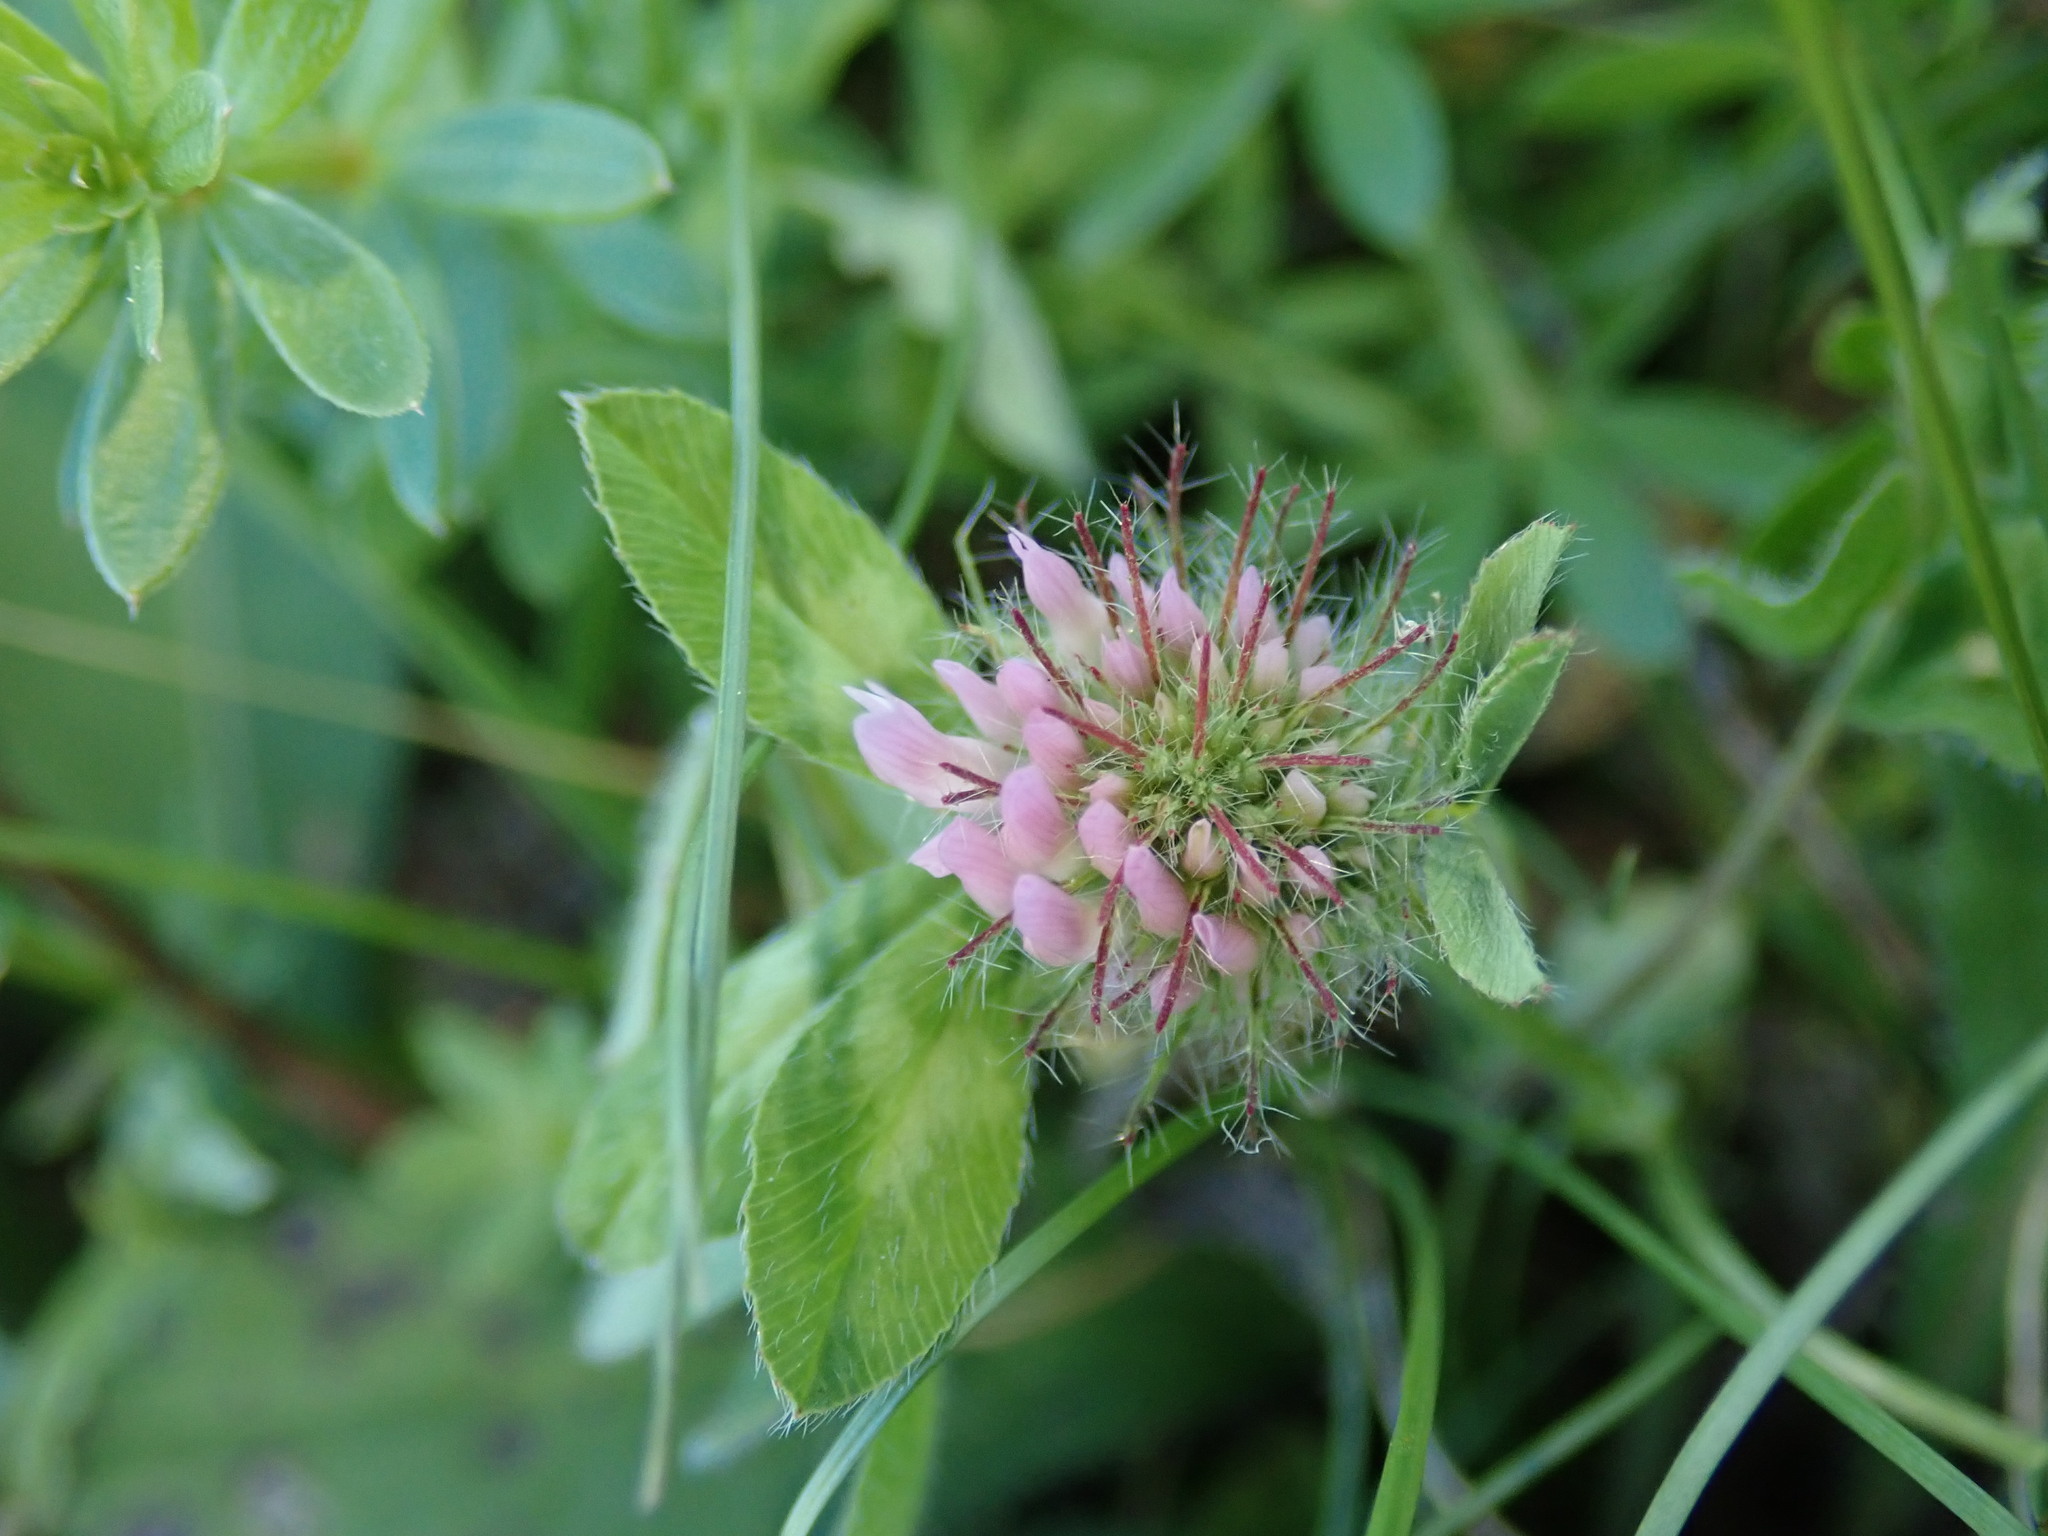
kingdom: Plantae
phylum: Tracheophyta
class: Magnoliopsida
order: Fabales
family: Fabaceae
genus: Trifolium
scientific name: Trifolium pratense
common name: Red clover
